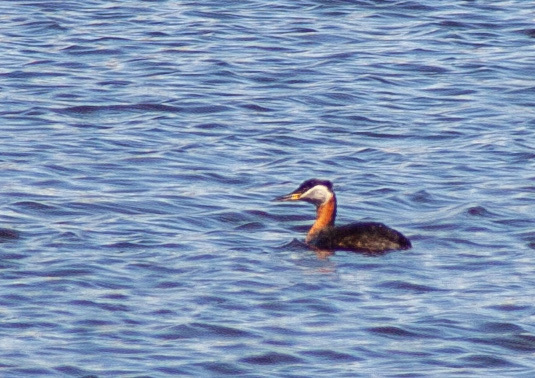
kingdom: Animalia
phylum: Chordata
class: Aves
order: Podicipediformes
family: Podicipedidae
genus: Podiceps
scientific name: Podiceps grisegena
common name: Red-necked grebe
